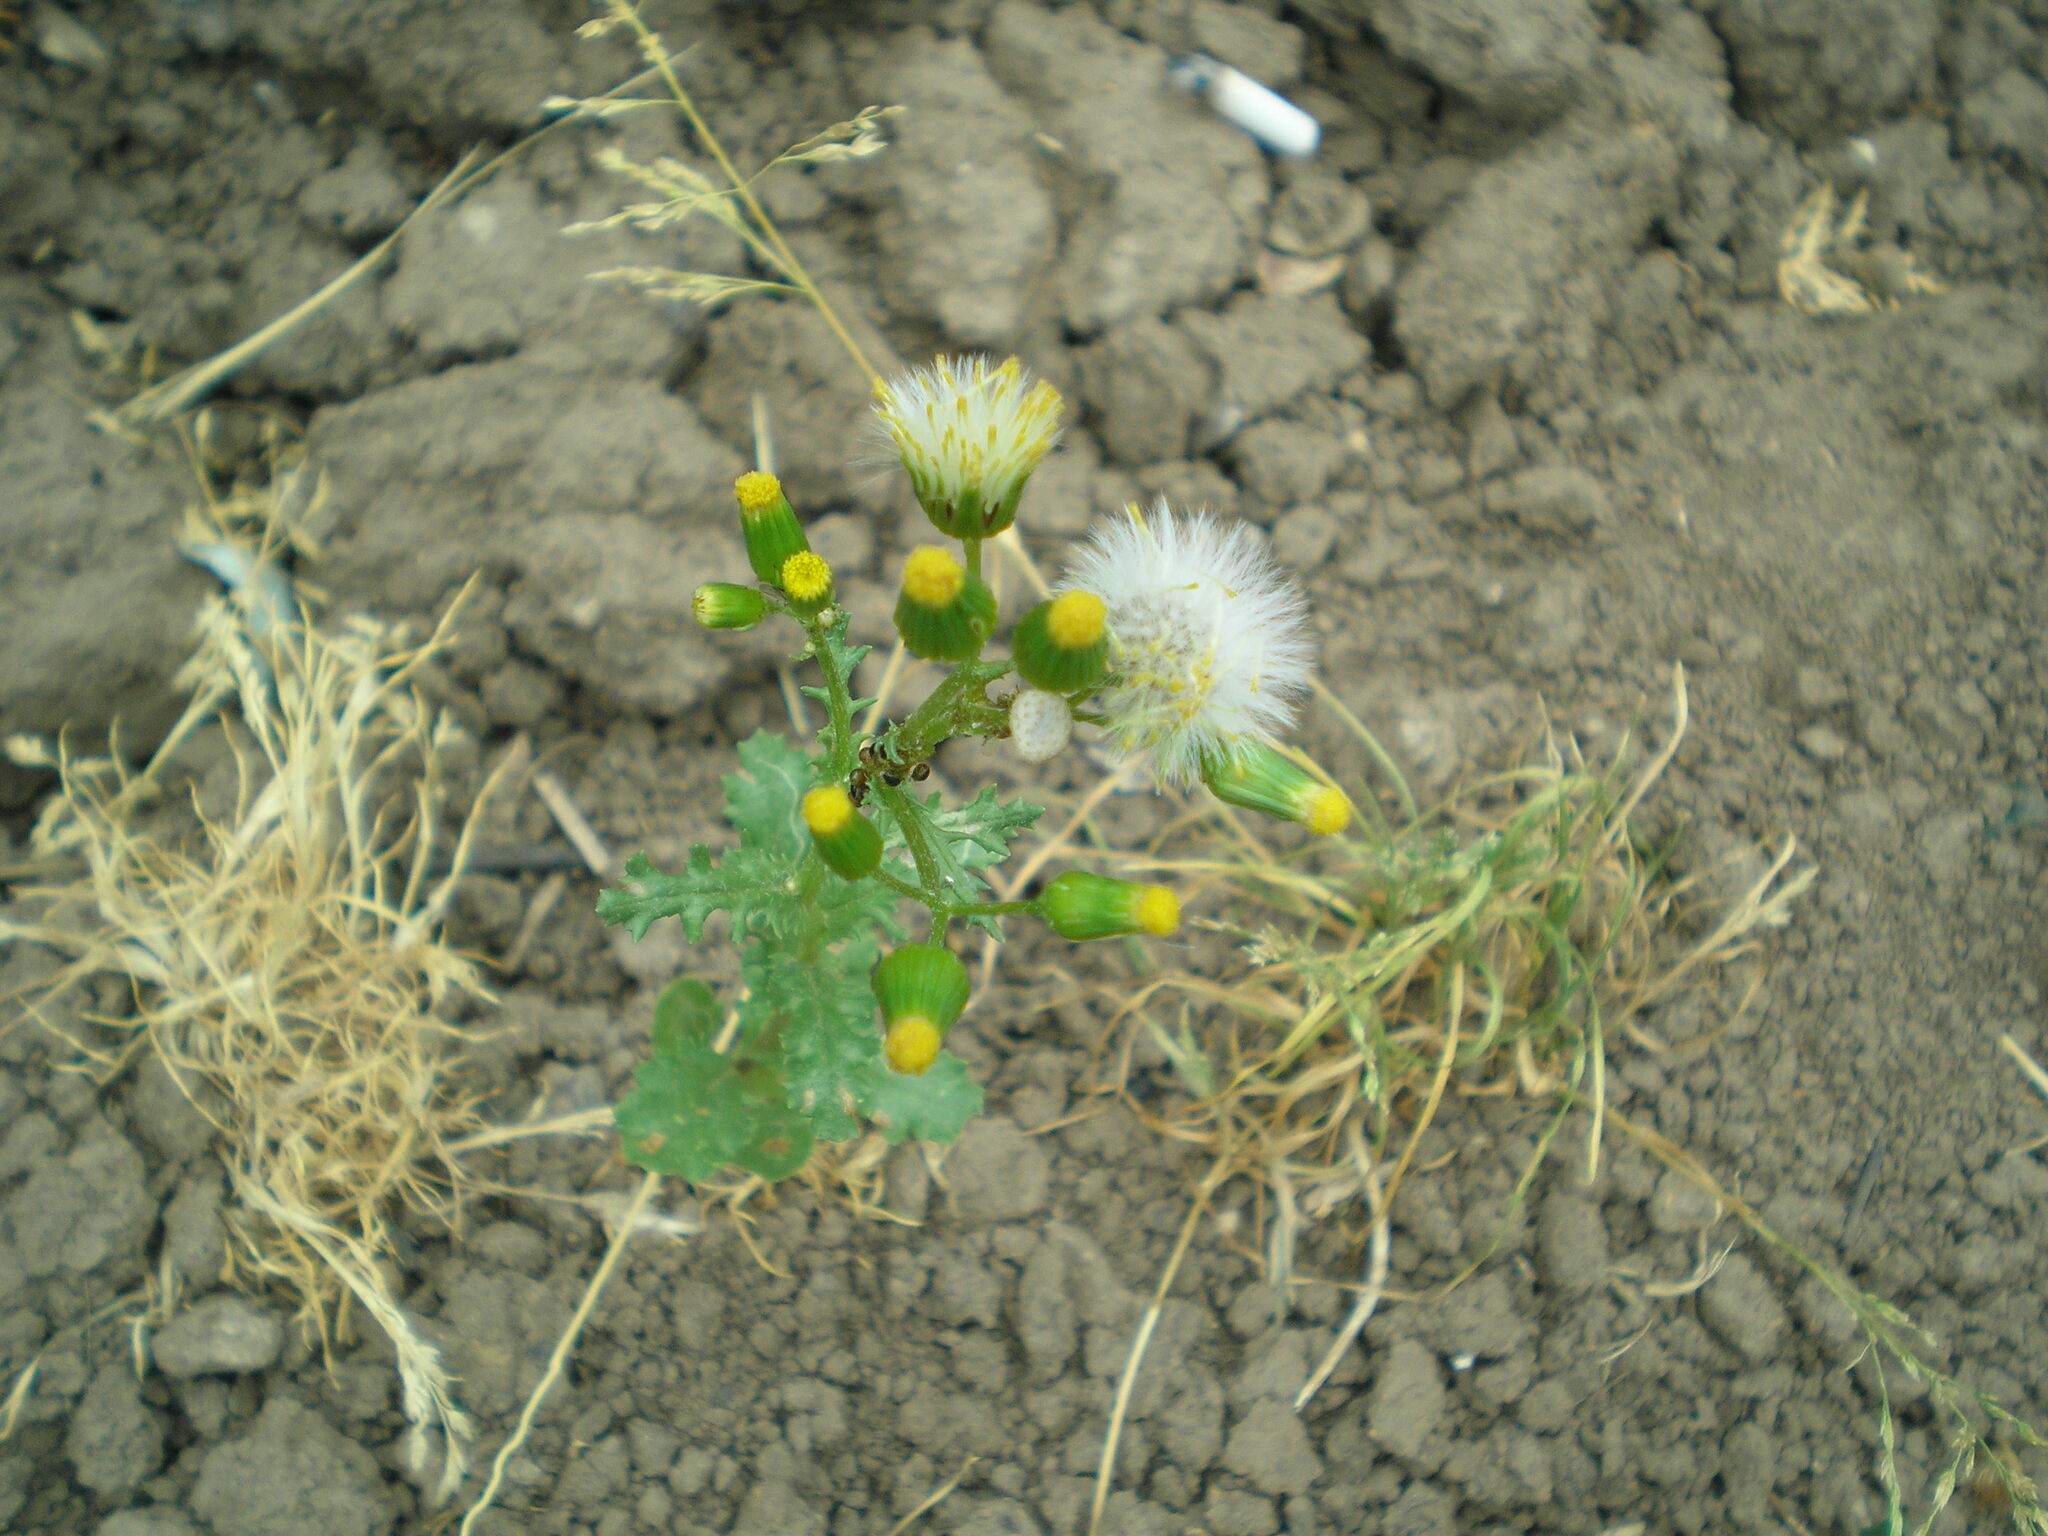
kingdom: Plantae
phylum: Tracheophyta
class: Magnoliopsida
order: Asterales
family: Asteraceae
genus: Senecio
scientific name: Senecio vulgaris
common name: Old-man-in-the-spring
